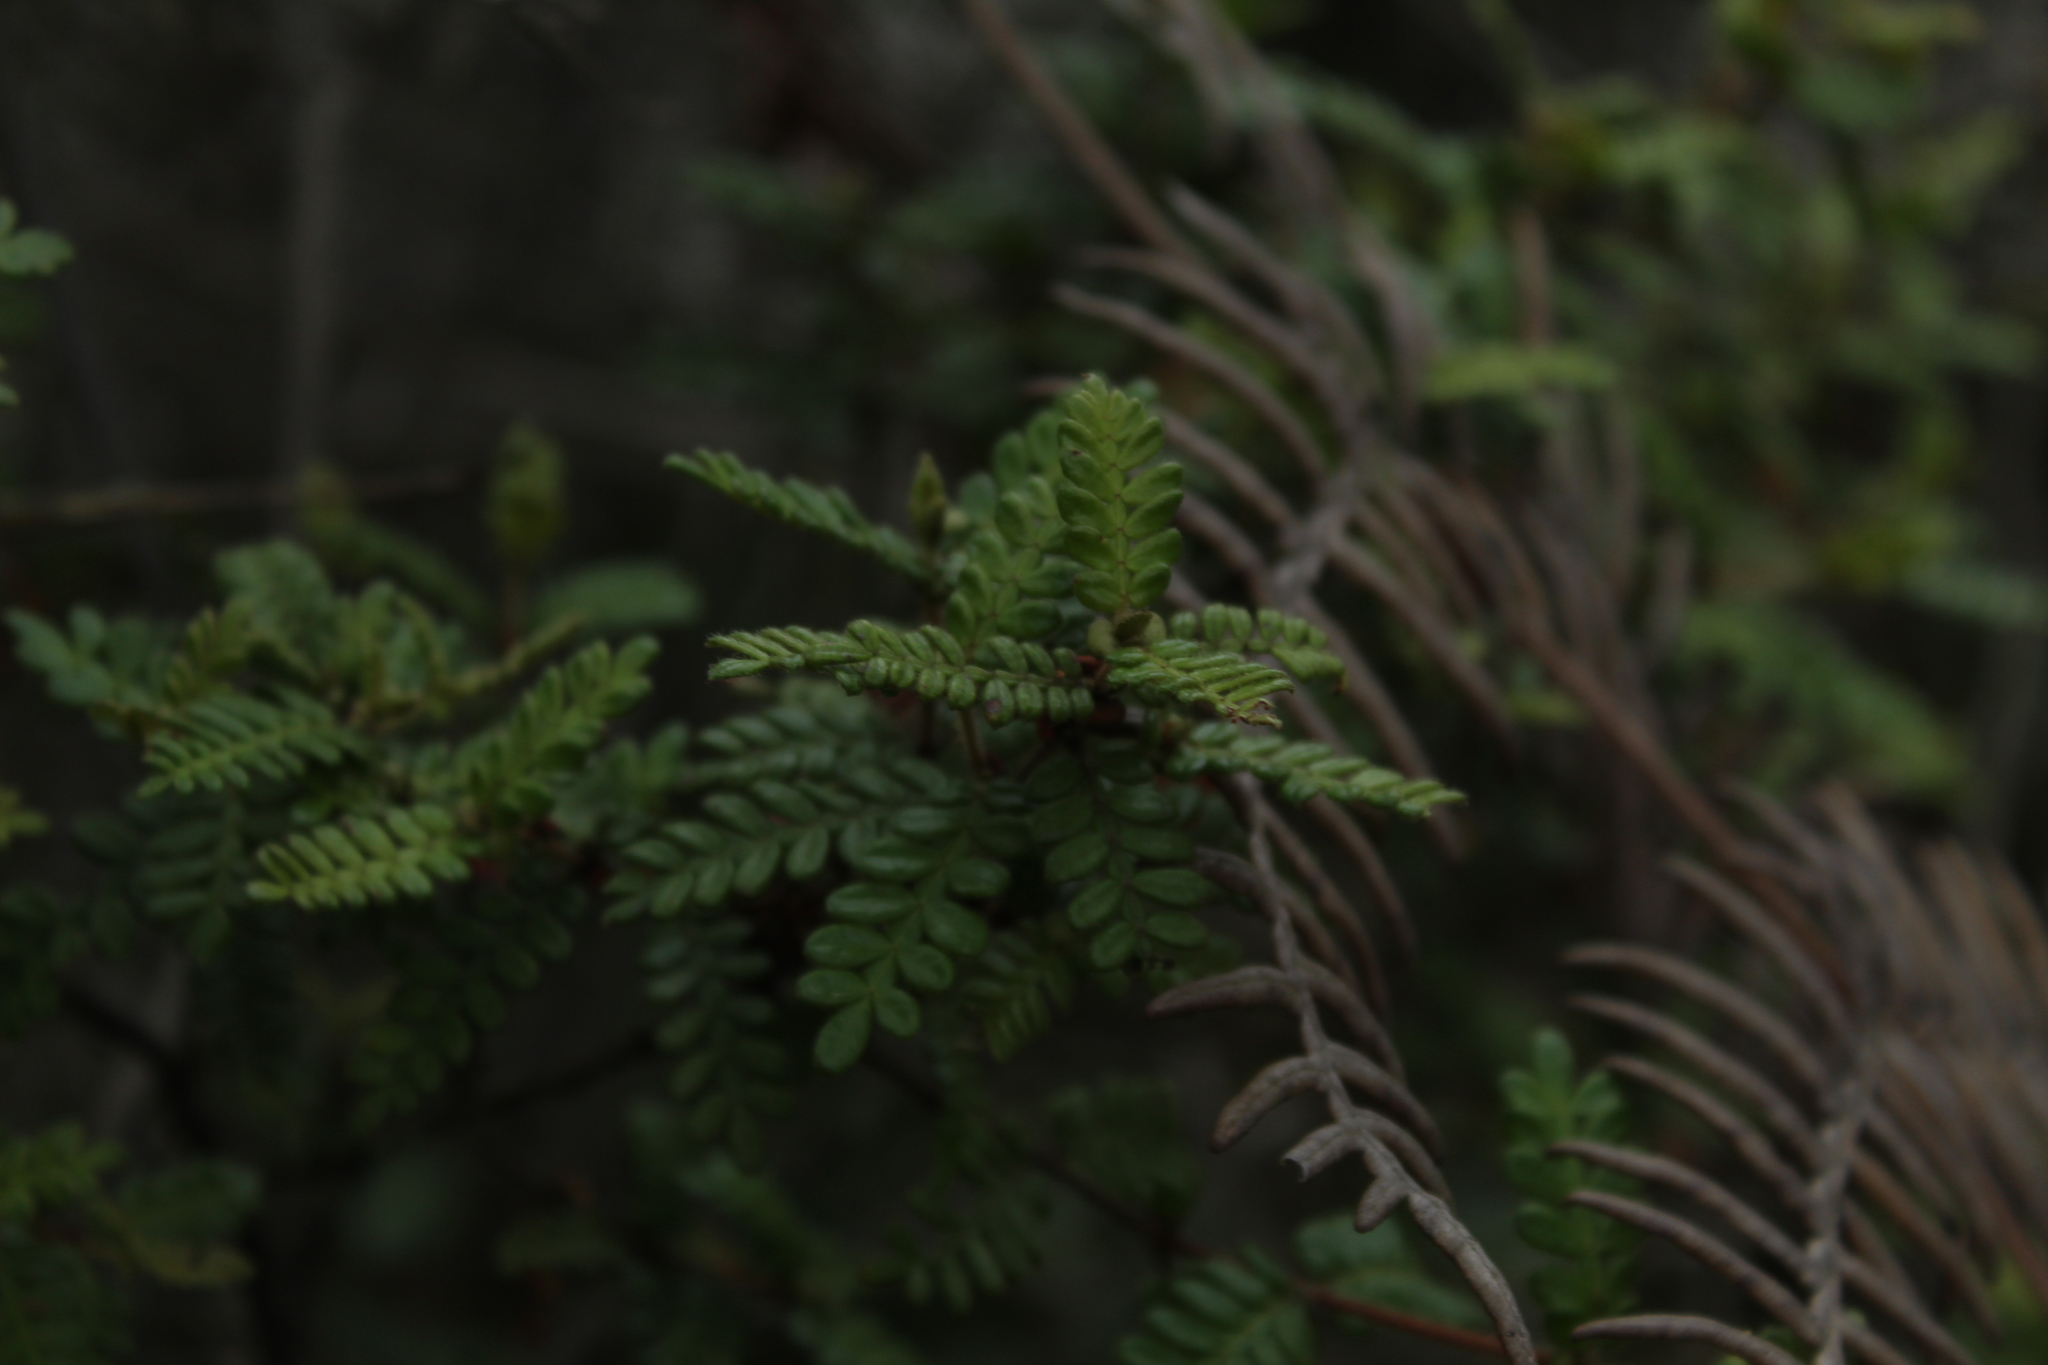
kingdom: Plantae
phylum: Tracheophyta
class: Magnoliopsida
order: Oxalidales
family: Cunoniaceae
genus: Weinmannia
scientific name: Weinmannia tomentosa
